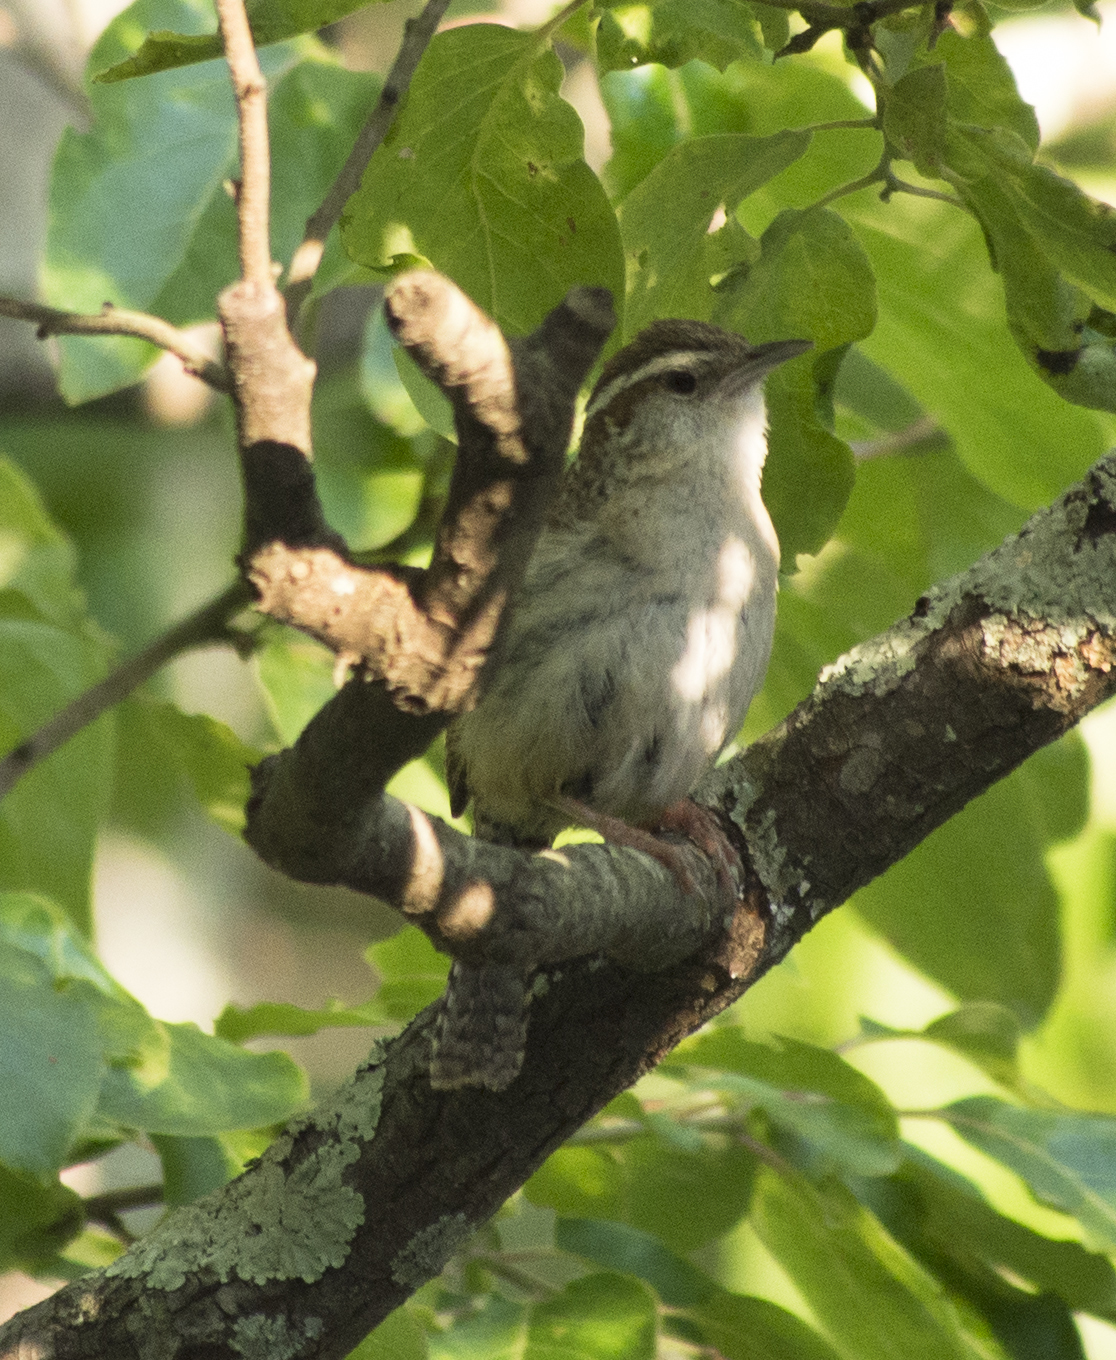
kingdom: Animalia
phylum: Chordata
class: Aves
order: Passeriformes
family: Troglodytidae
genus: Thryothorus
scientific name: Thryothorus ludovicianus
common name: Carolina wren
